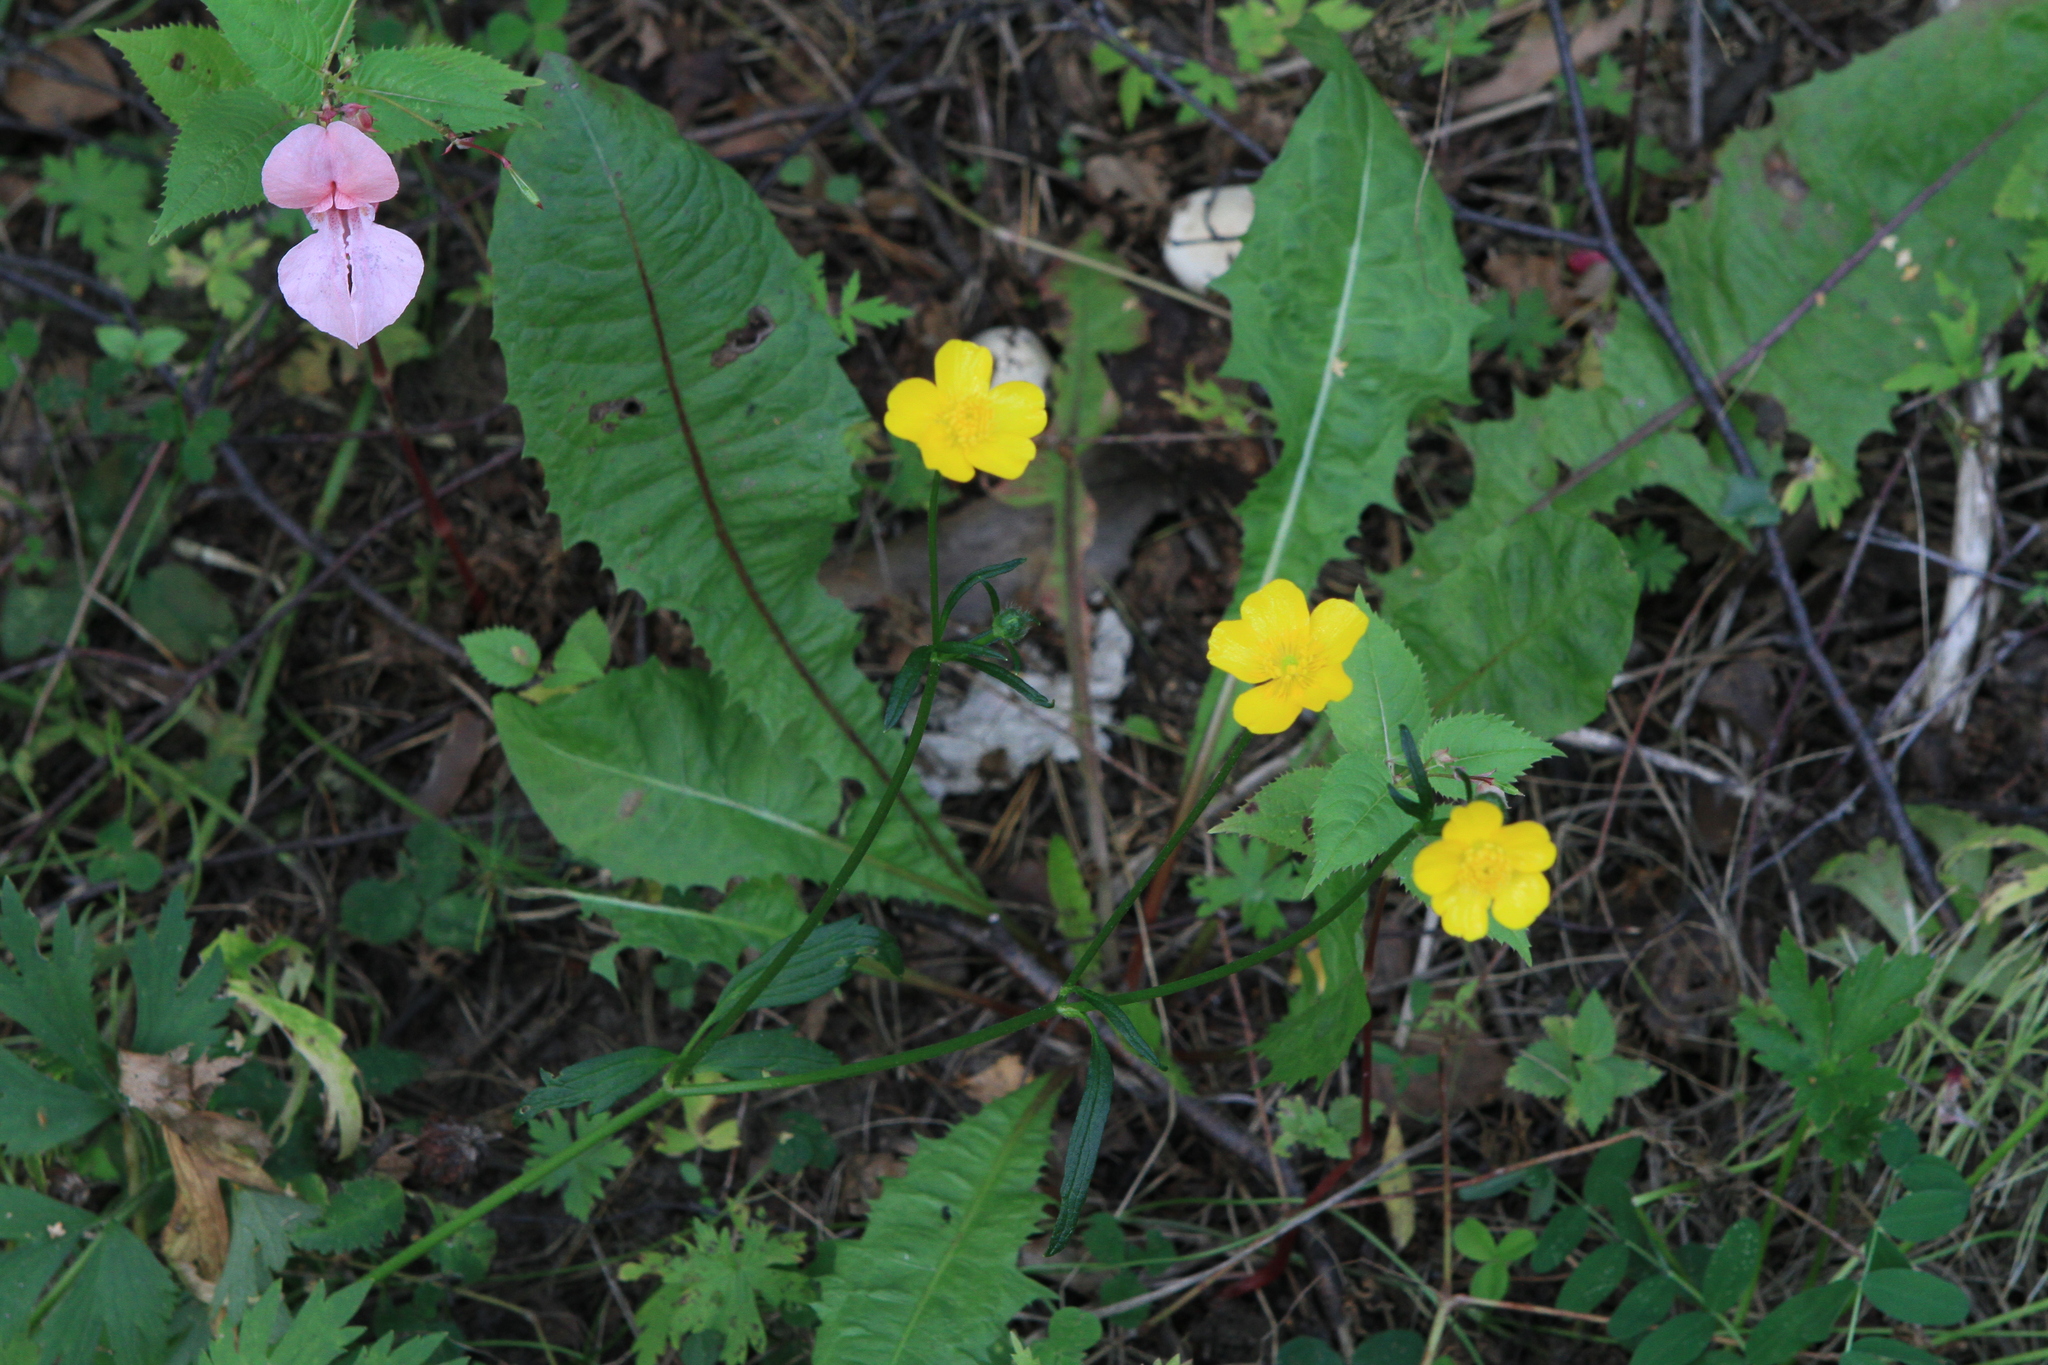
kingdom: Plantae
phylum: Tracheophyta
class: Magnoliopsida
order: Ranunculales
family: Ranunculaceae
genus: Ranunculus
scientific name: Ranunculus repens
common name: Creeping buttercup
